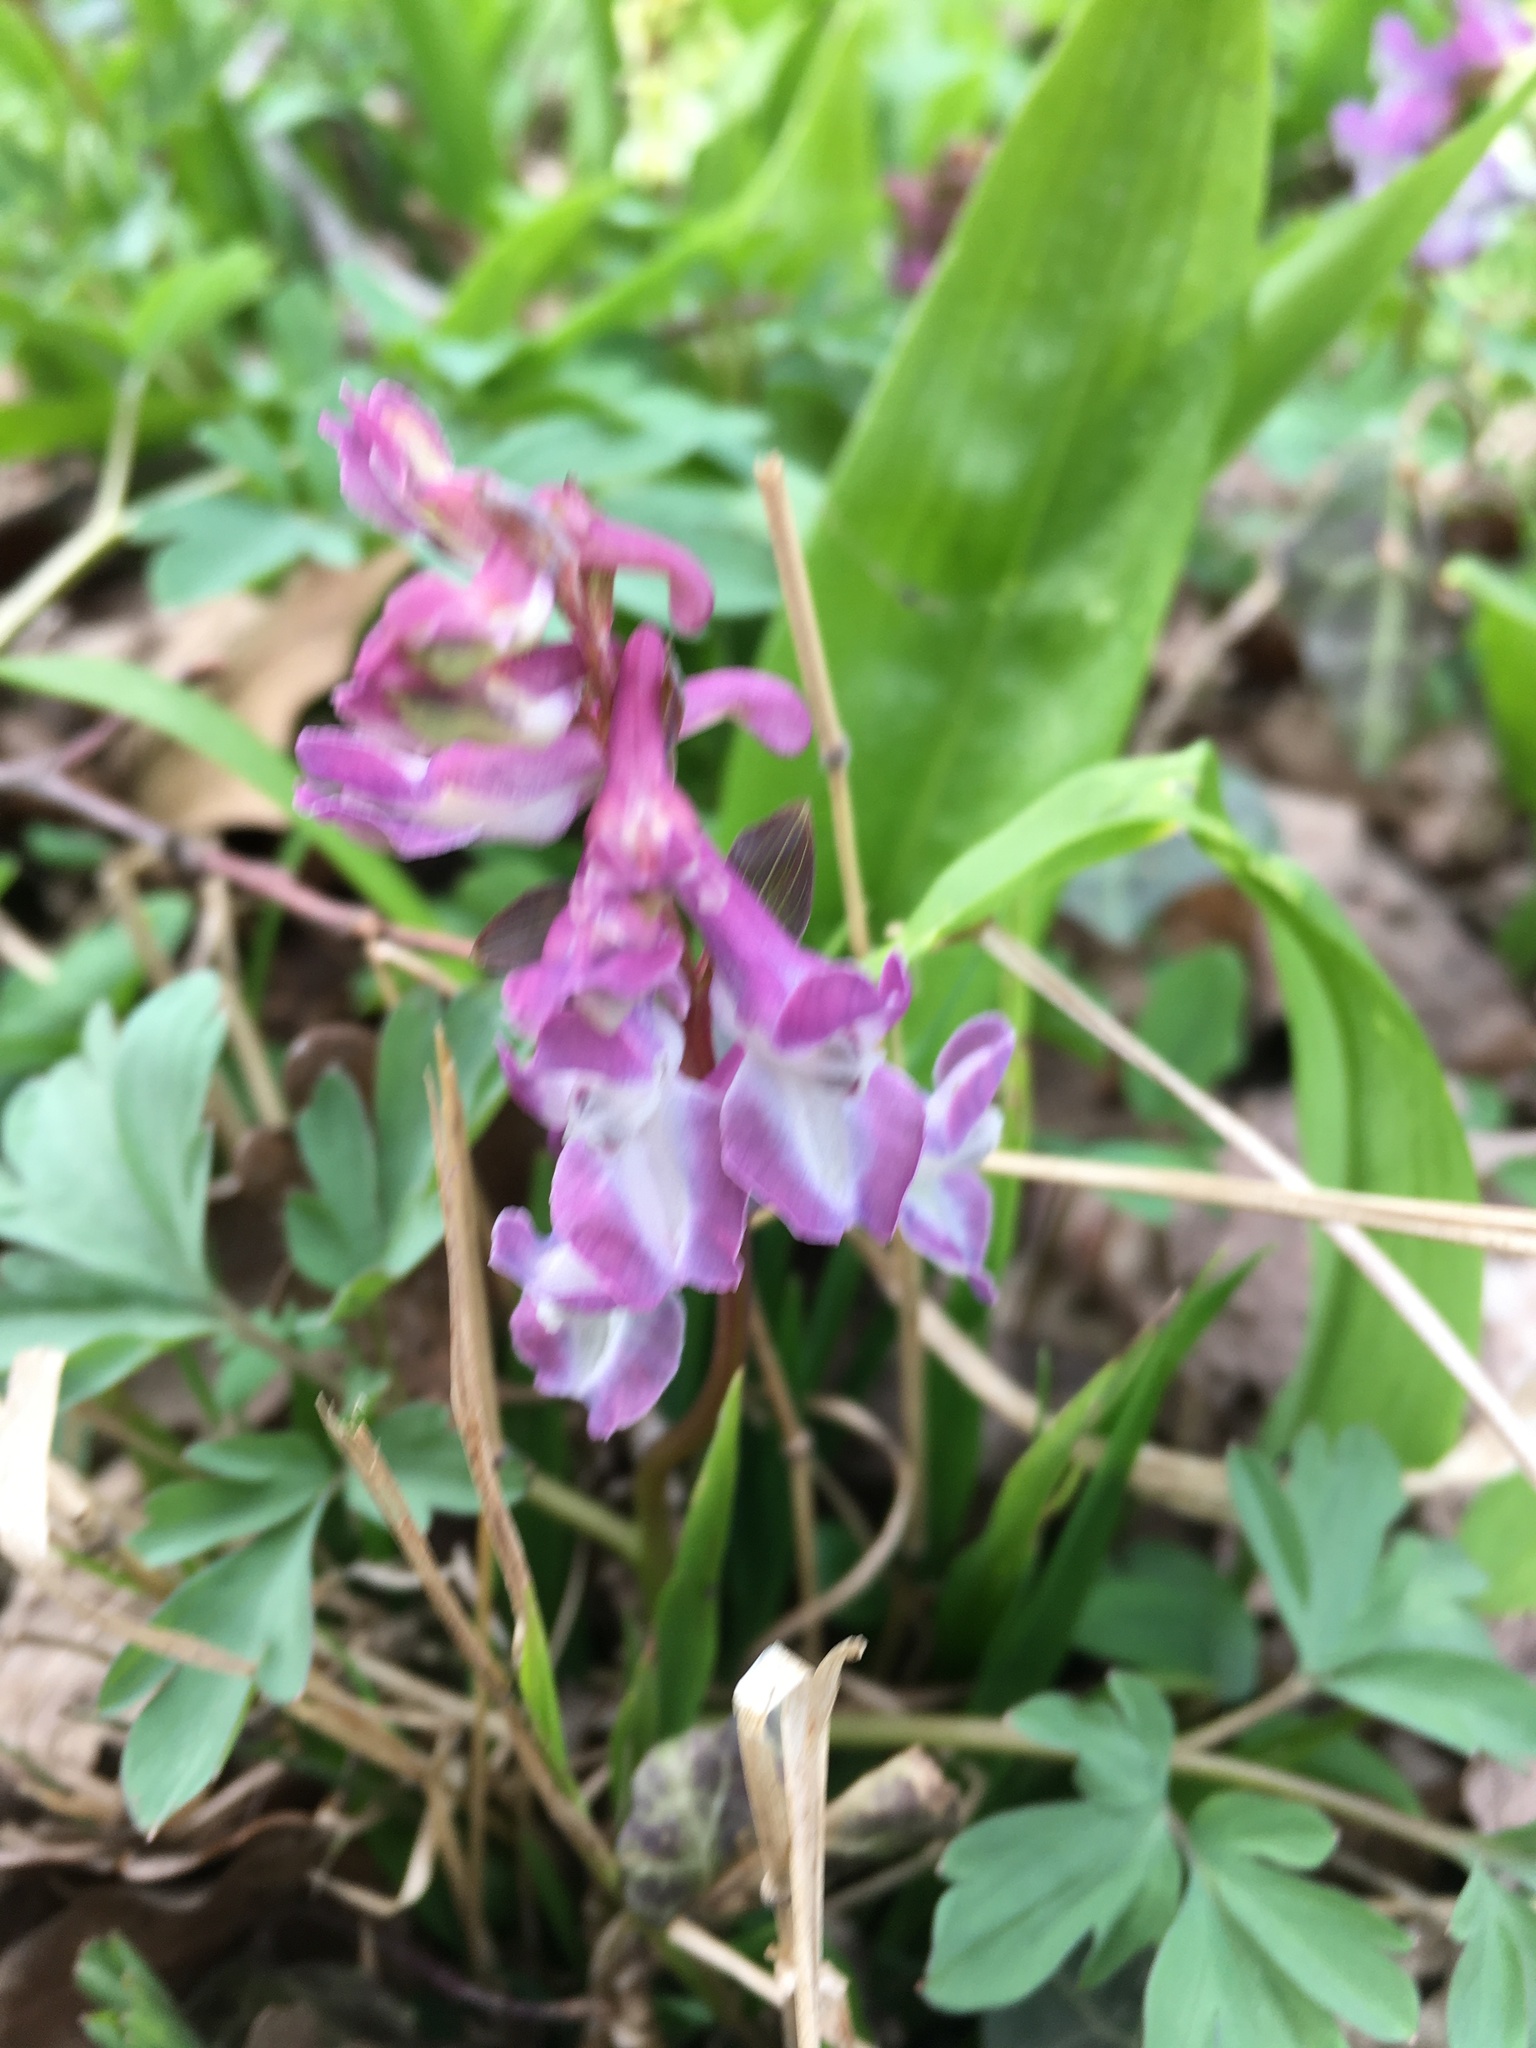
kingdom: Plantae
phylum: Tracheophyta
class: Magnoliopsida
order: Ranunculales
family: Papaveraceae
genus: Corydalis
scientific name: Corydalis cava
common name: Hollowroot
